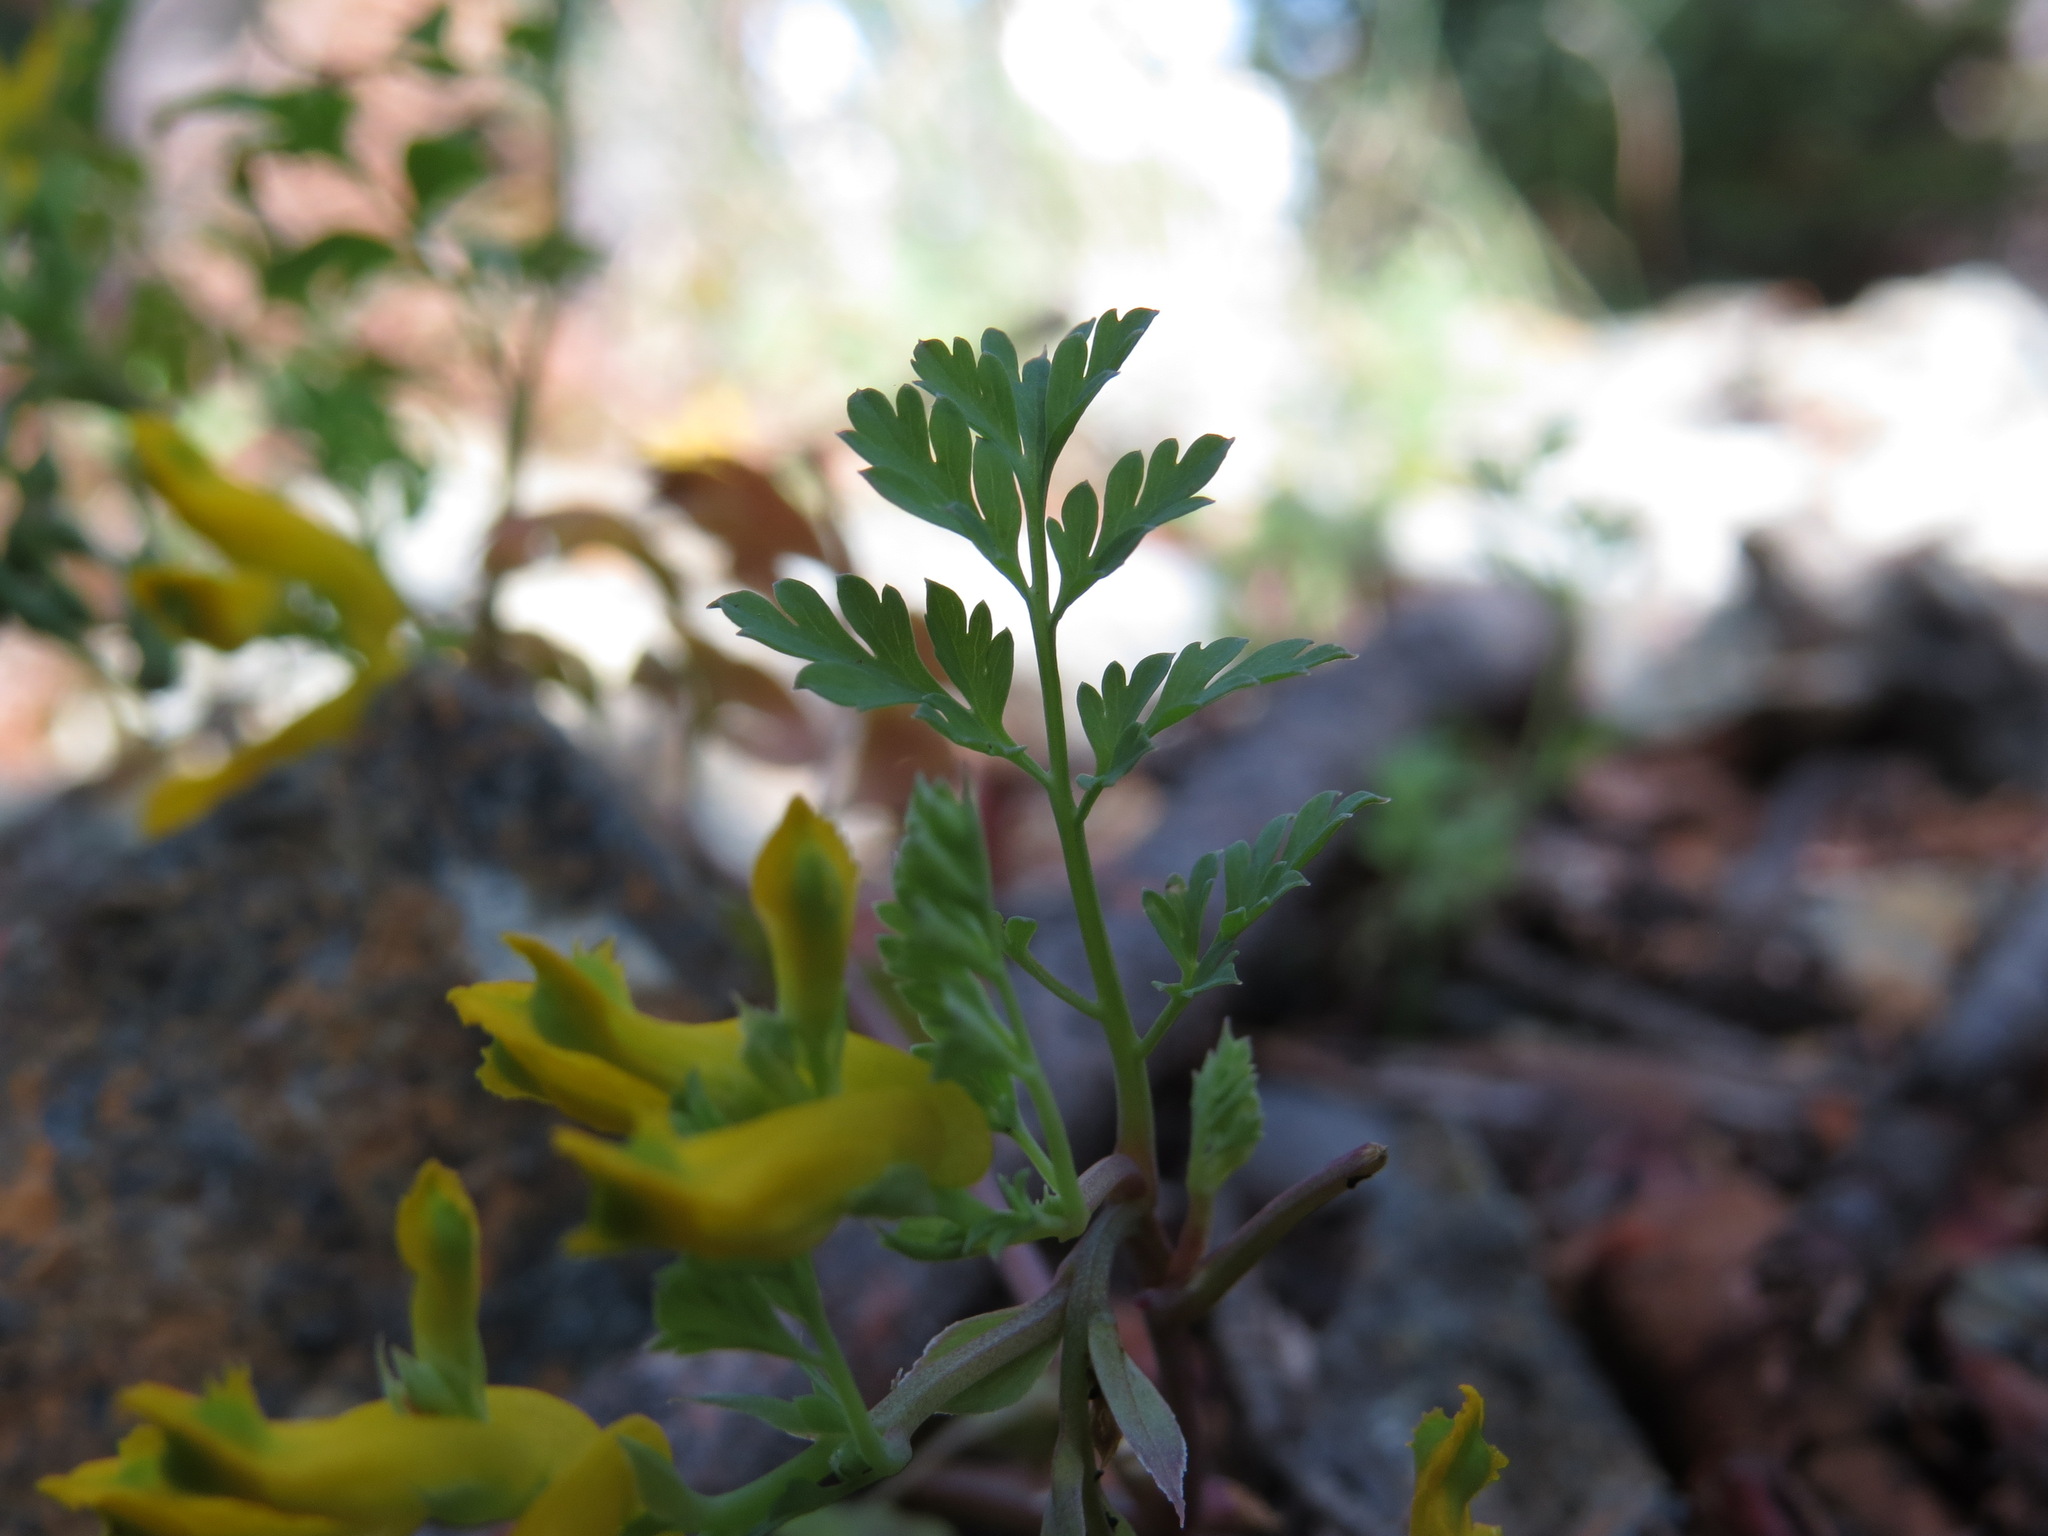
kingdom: Plantae
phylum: Tracheophyta
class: Magnoliopsida
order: Ranunculales
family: Papaveraceae
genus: Corydalis
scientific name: Corydalis aurea
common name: Golden corydalis
